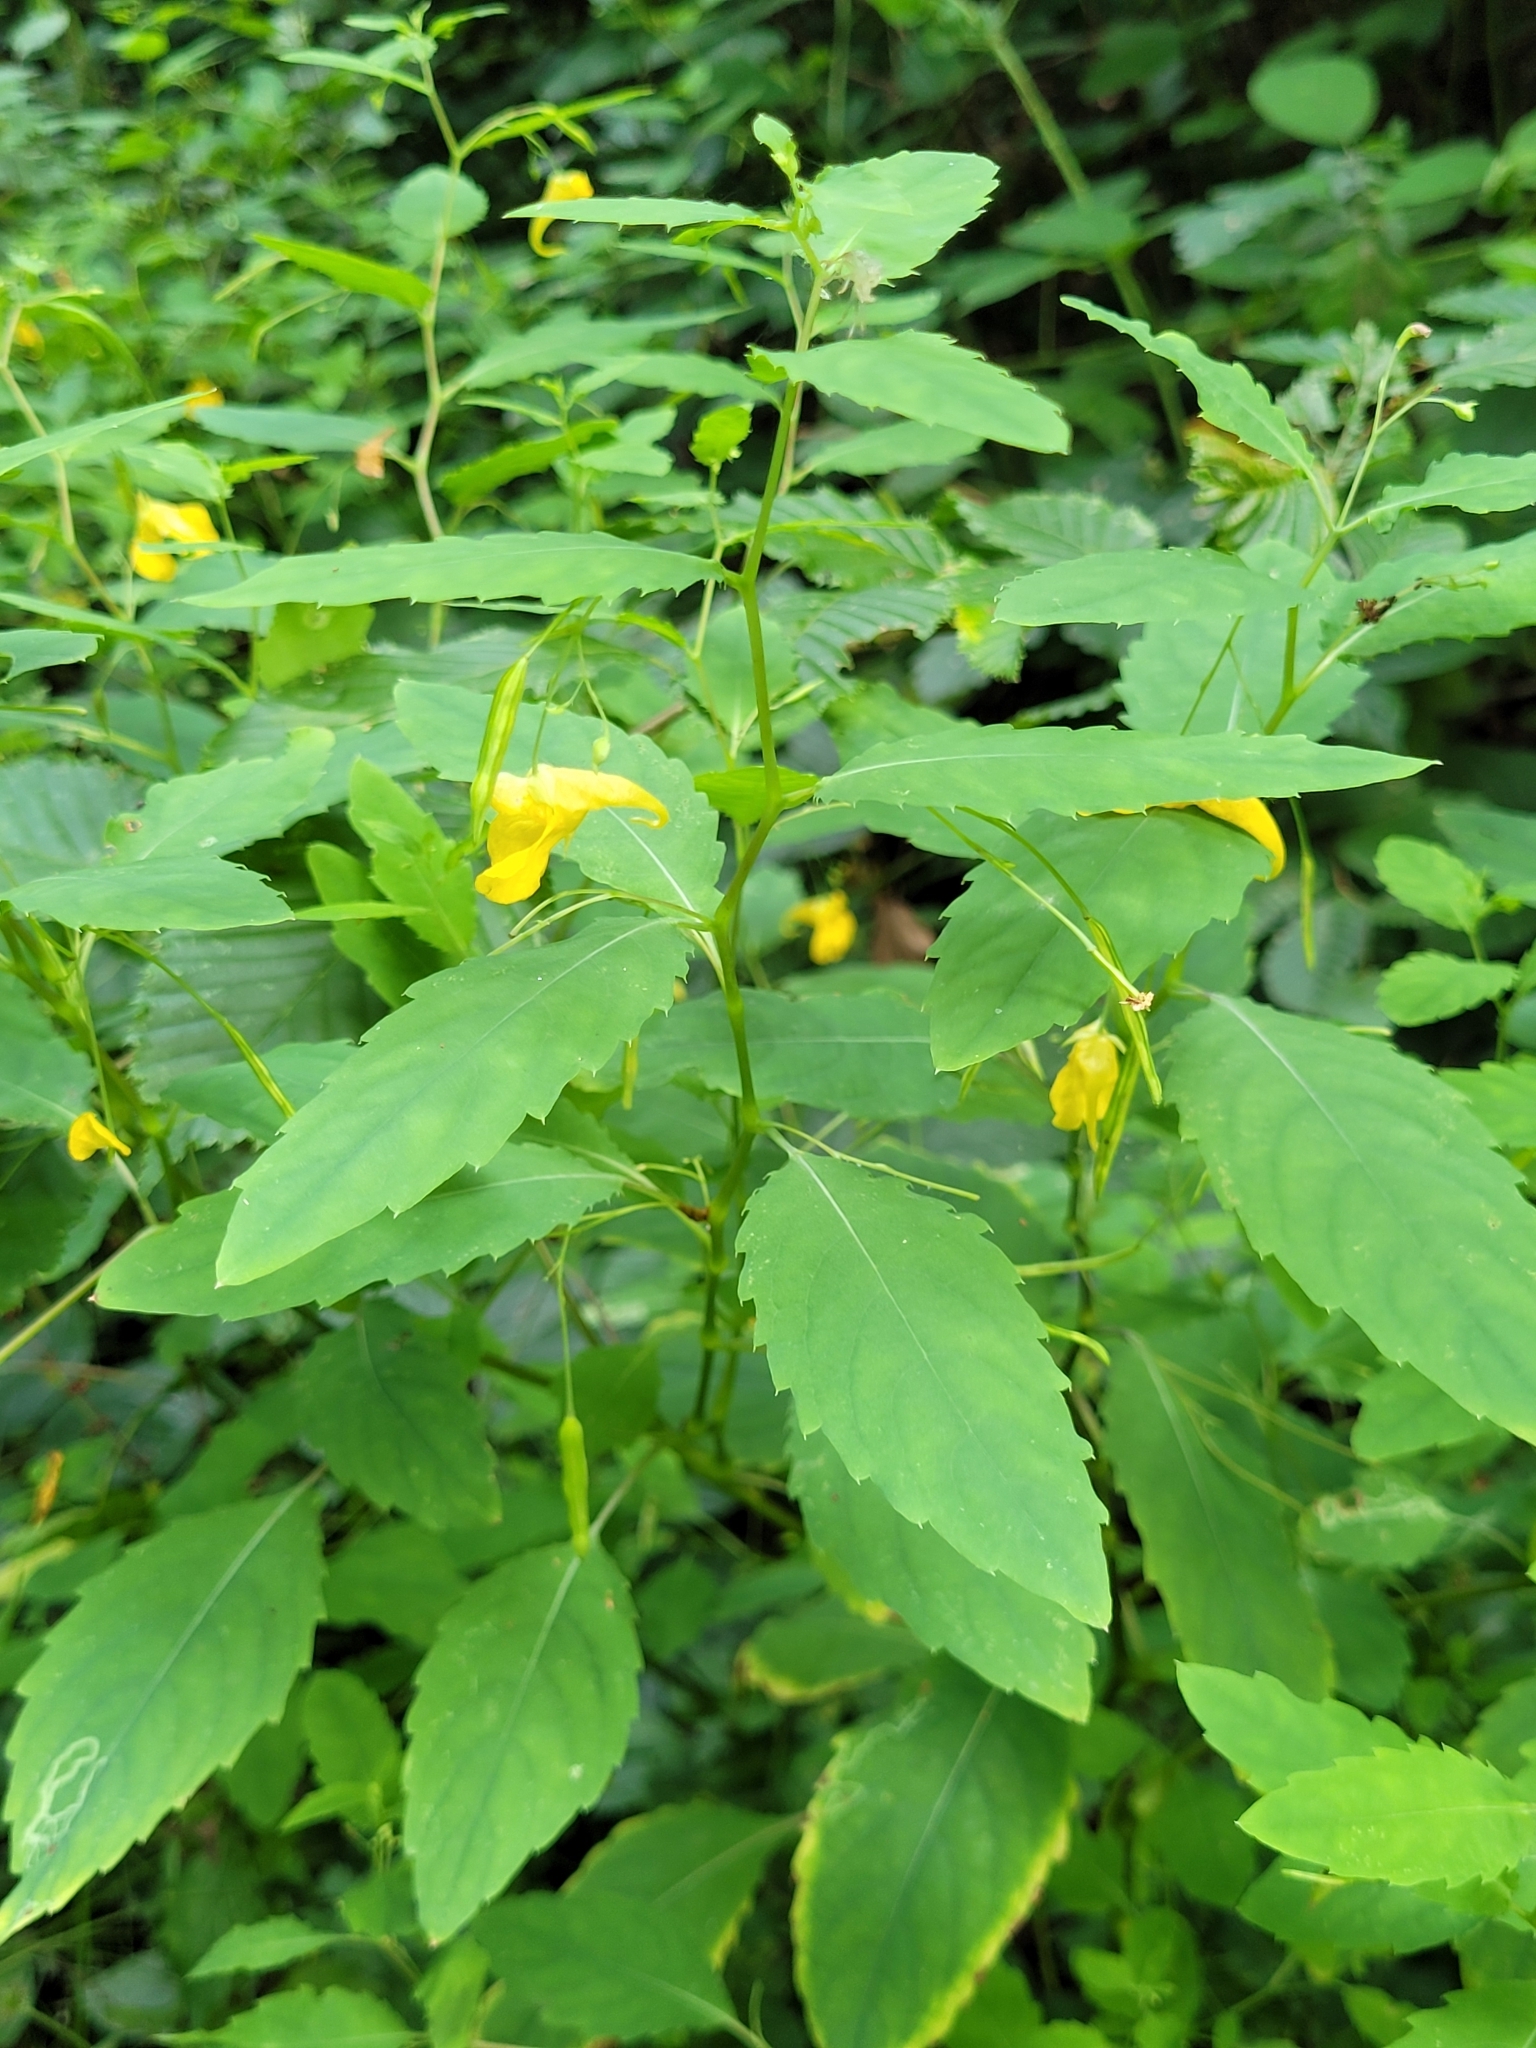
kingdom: Plantae
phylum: Tracheophyta
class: Magnoliopsida
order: Ericales
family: Balsaminaceae
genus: Impatiens
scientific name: Impatiens noli-tangere
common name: Touch-me-not balsam
